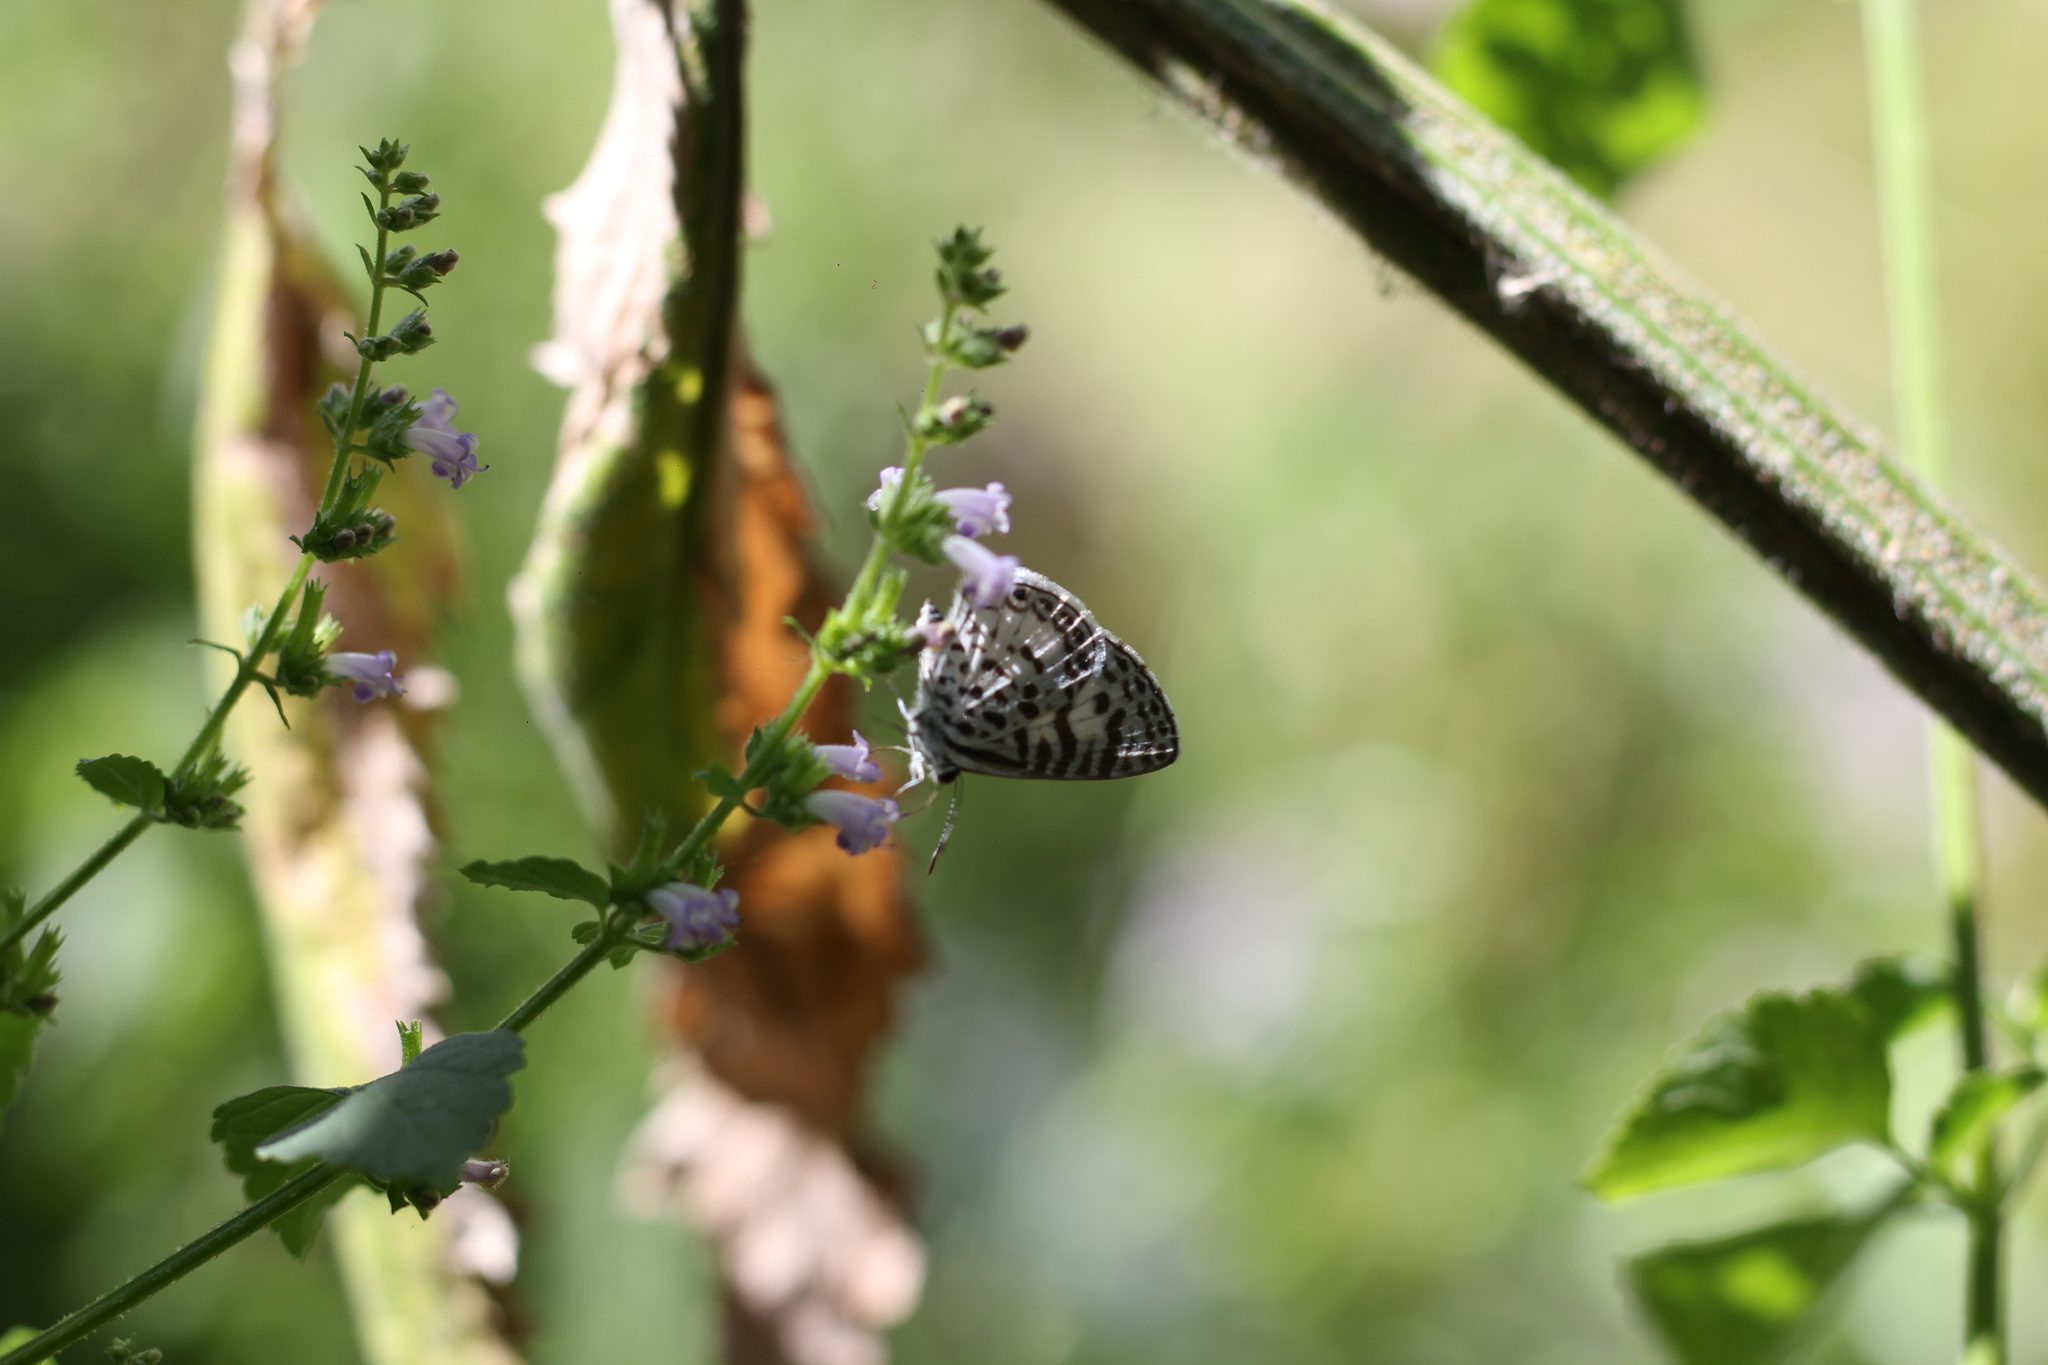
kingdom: Animalia
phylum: Arthropoda
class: Insecta
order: Lepidoptera
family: Lycaenidae
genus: Leptotes
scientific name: Leptotes cassius
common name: Cassius blue
